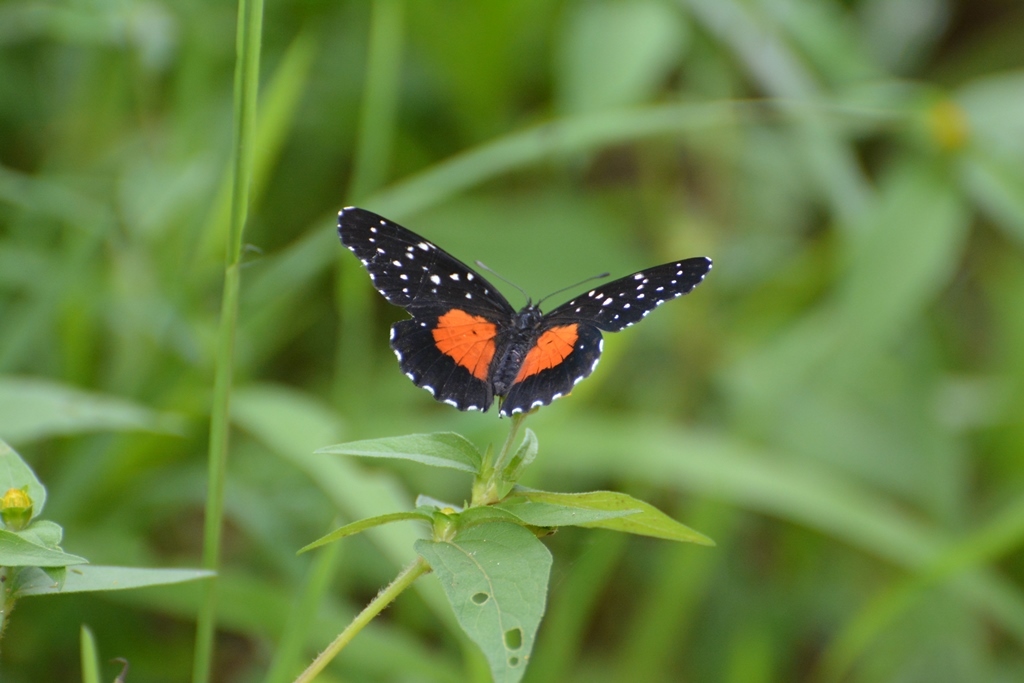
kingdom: Animalia
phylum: Arthropoda
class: Insecta
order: Lepidoptera
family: Nymphalidae
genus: Chlosyne
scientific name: Chlosyne rosita
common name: Rosita patch
